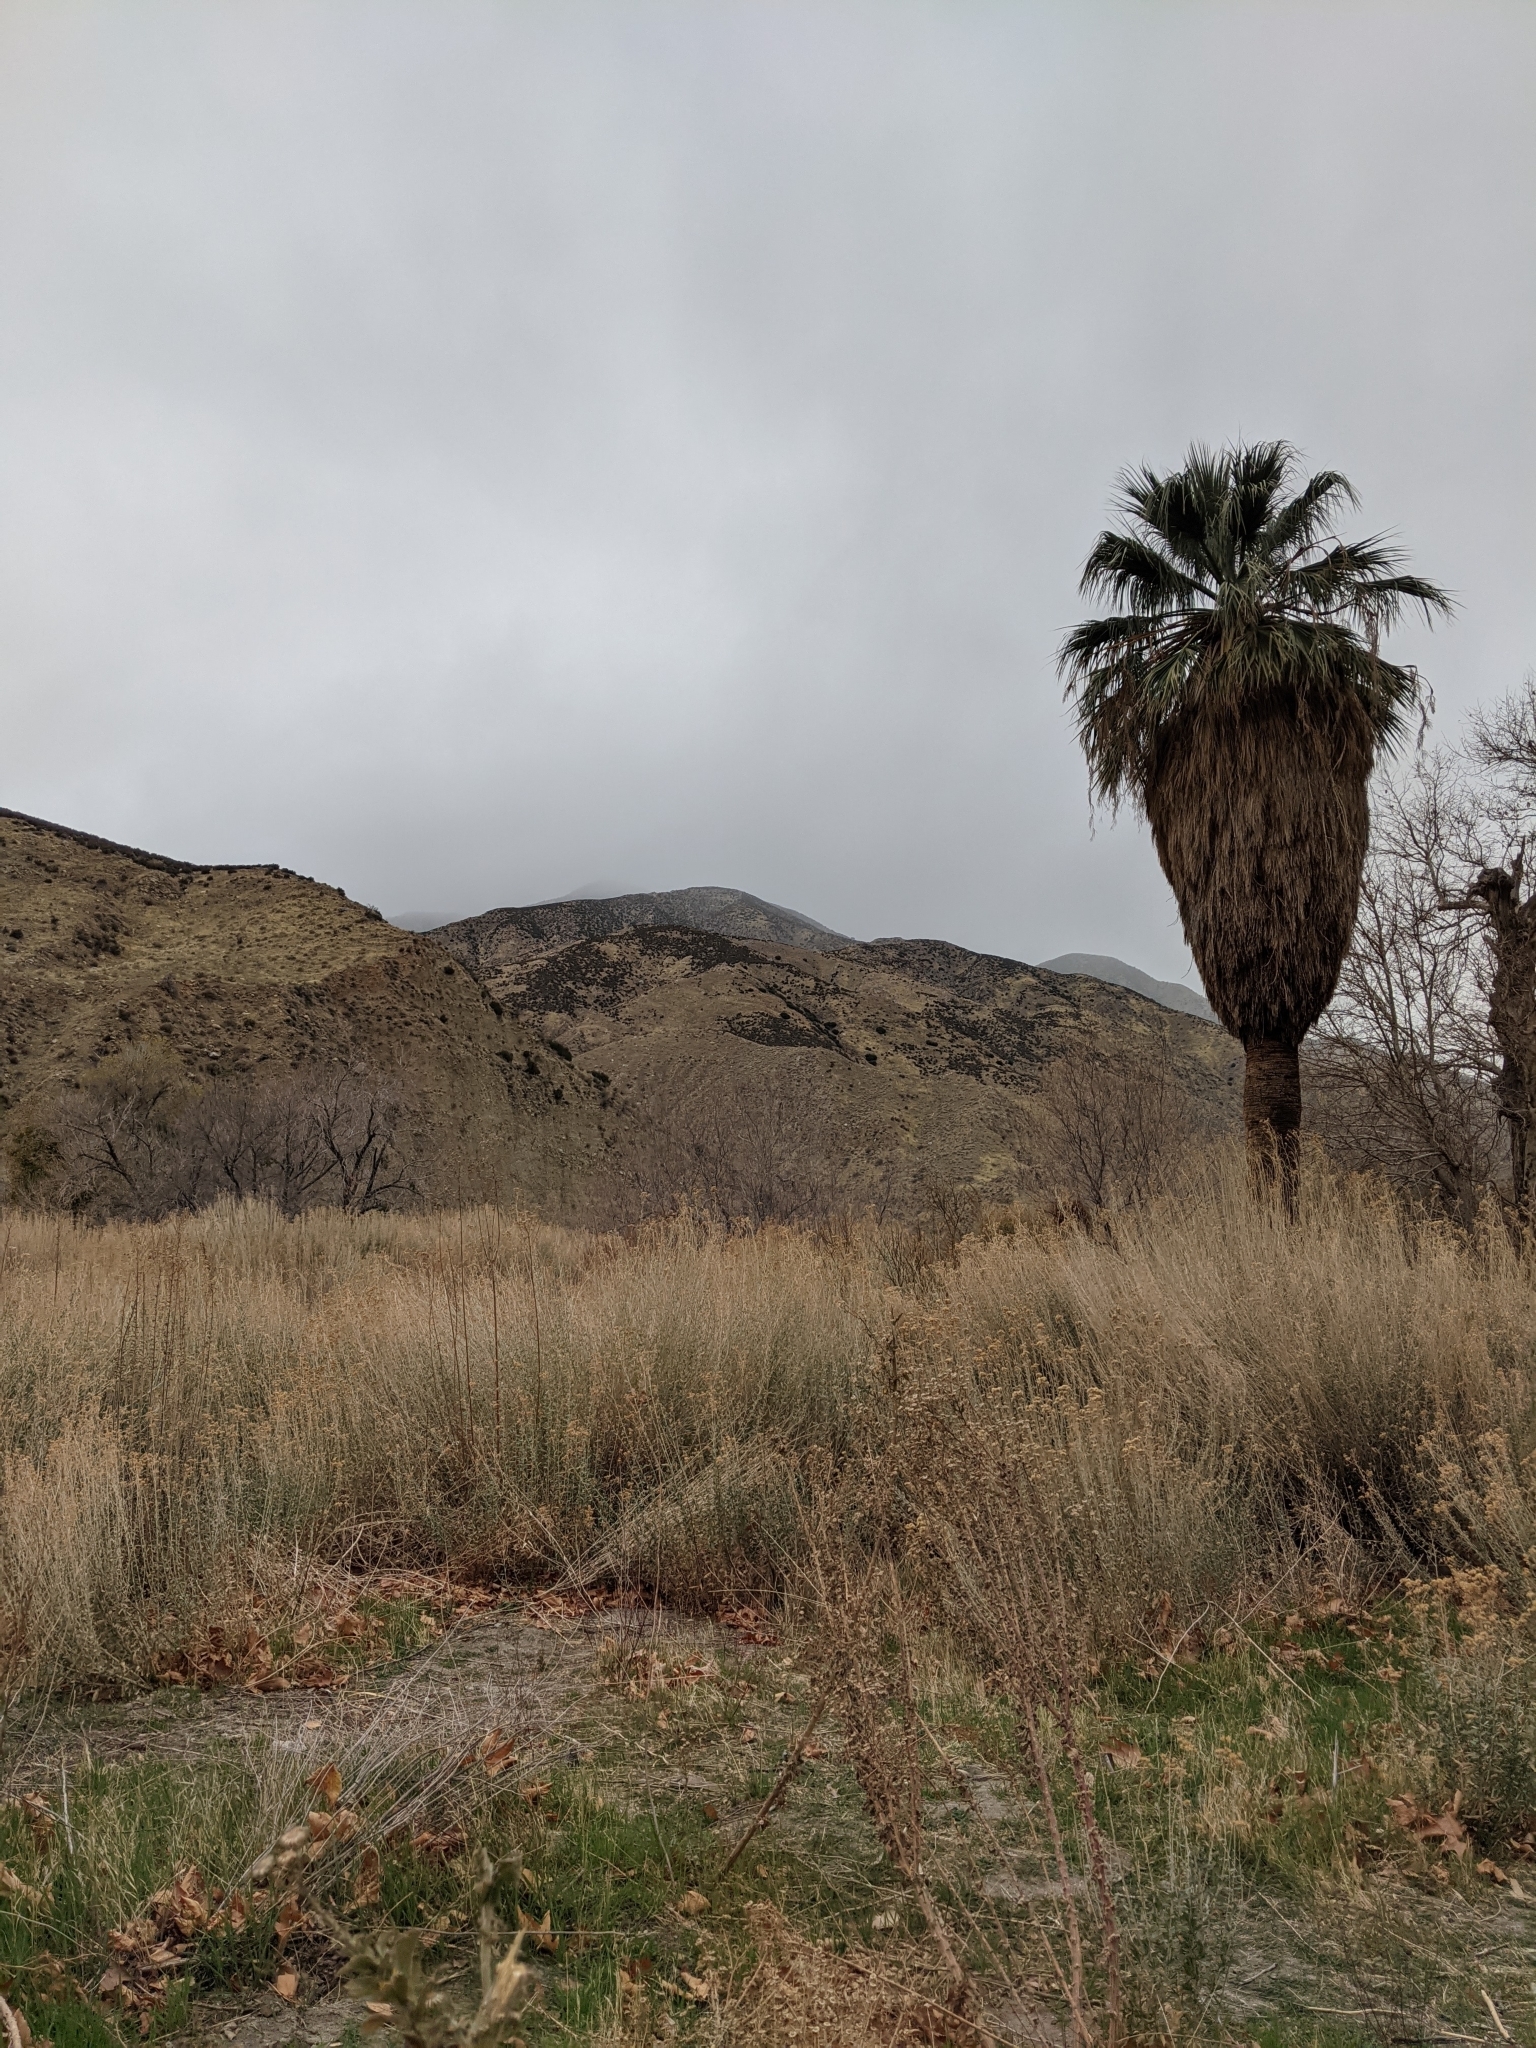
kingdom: Plantae
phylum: Tracheophyta
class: Liliopsida
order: Arecales
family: Arecaceae
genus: Washingtonia
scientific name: Washingtonia filifera
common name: California fan palm
